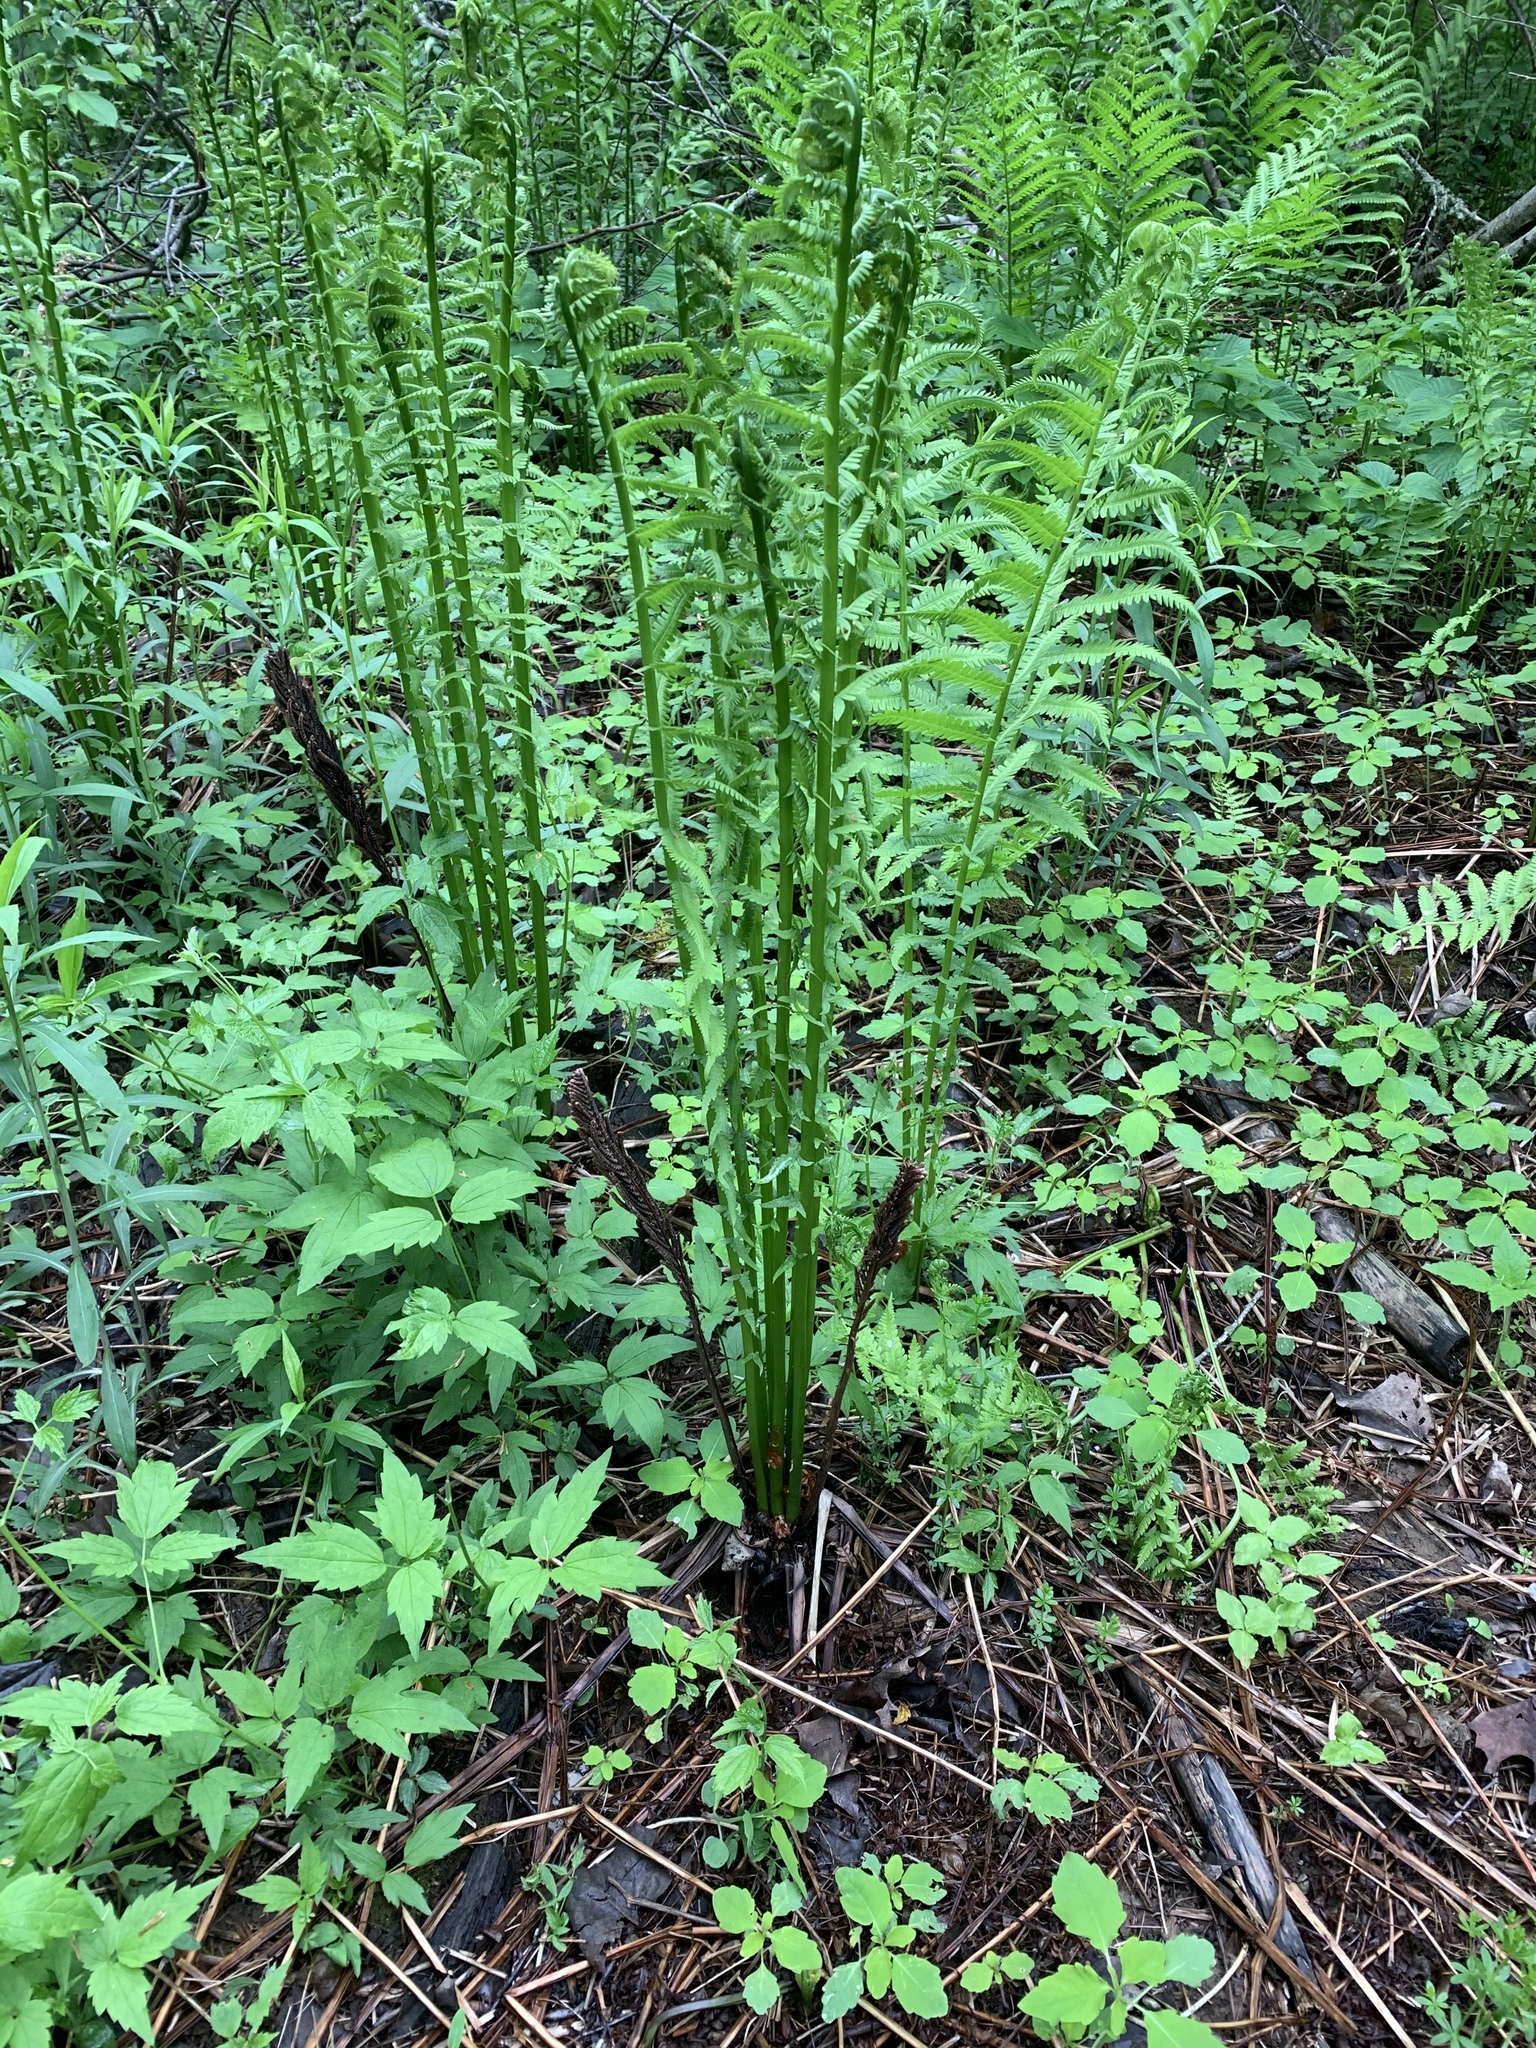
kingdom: Plantae
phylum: Tracheophyta
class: Polypodiopsida
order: Polypodiales
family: Onocleaceae
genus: Matteuccia
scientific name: Matteuccia struthiopteris
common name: Ostrich fern
